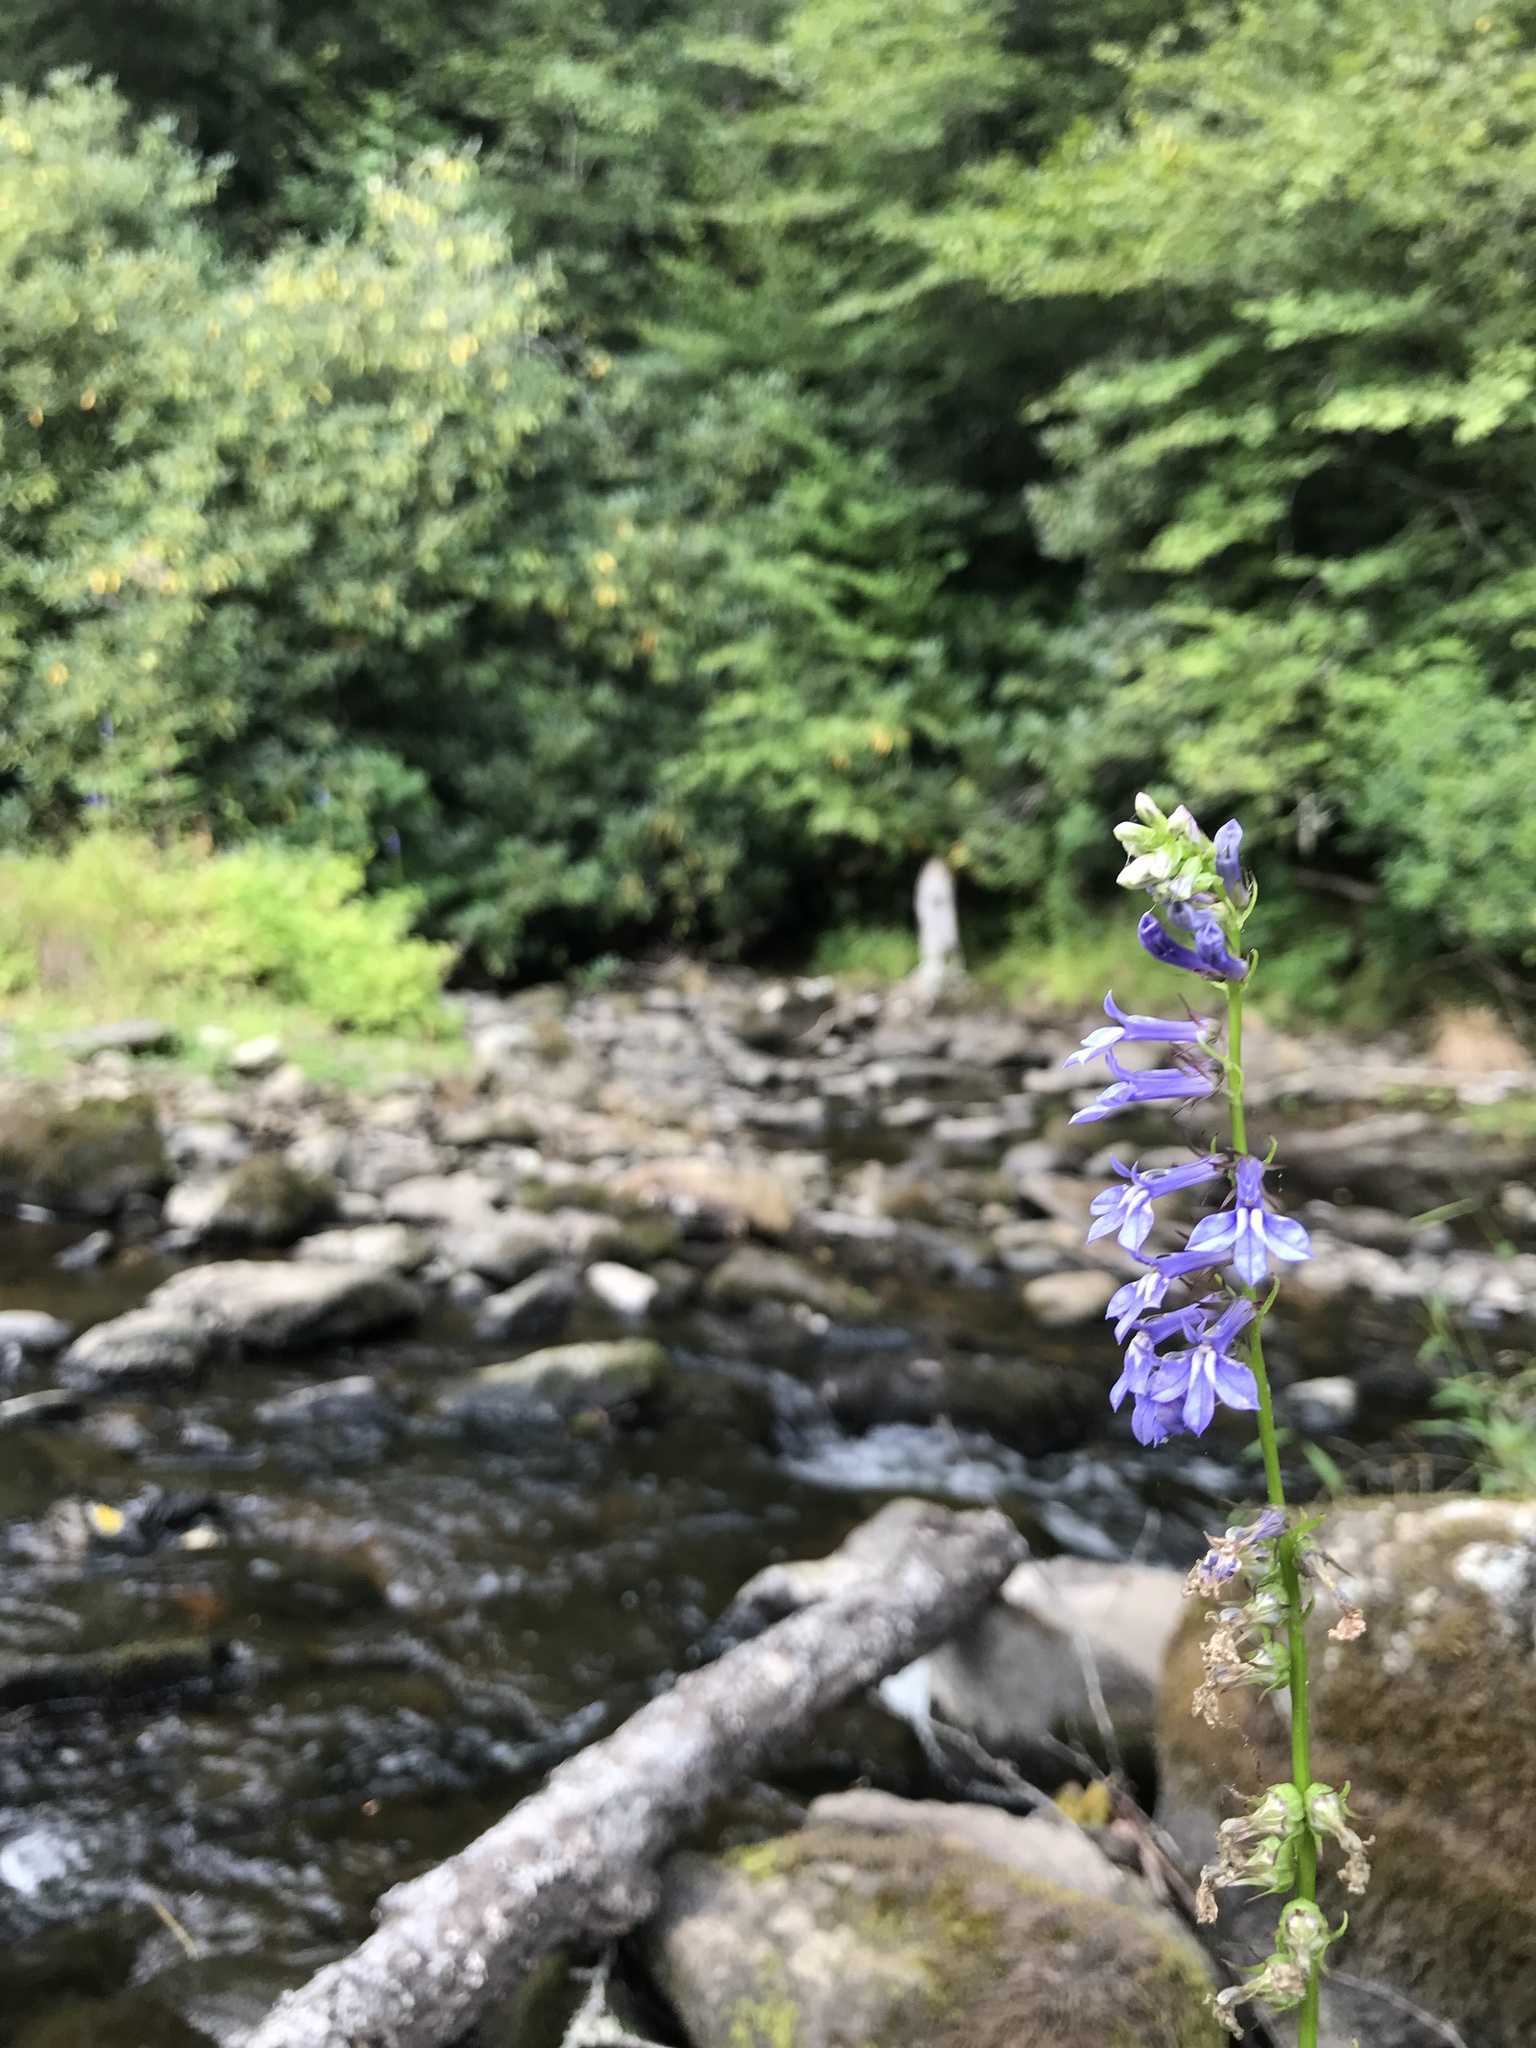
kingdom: Plantae
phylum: Tracheophyta
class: Magnoliopsida
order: Asterales
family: Campanulaceae
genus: Lobelia
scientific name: Lobelia amoena
